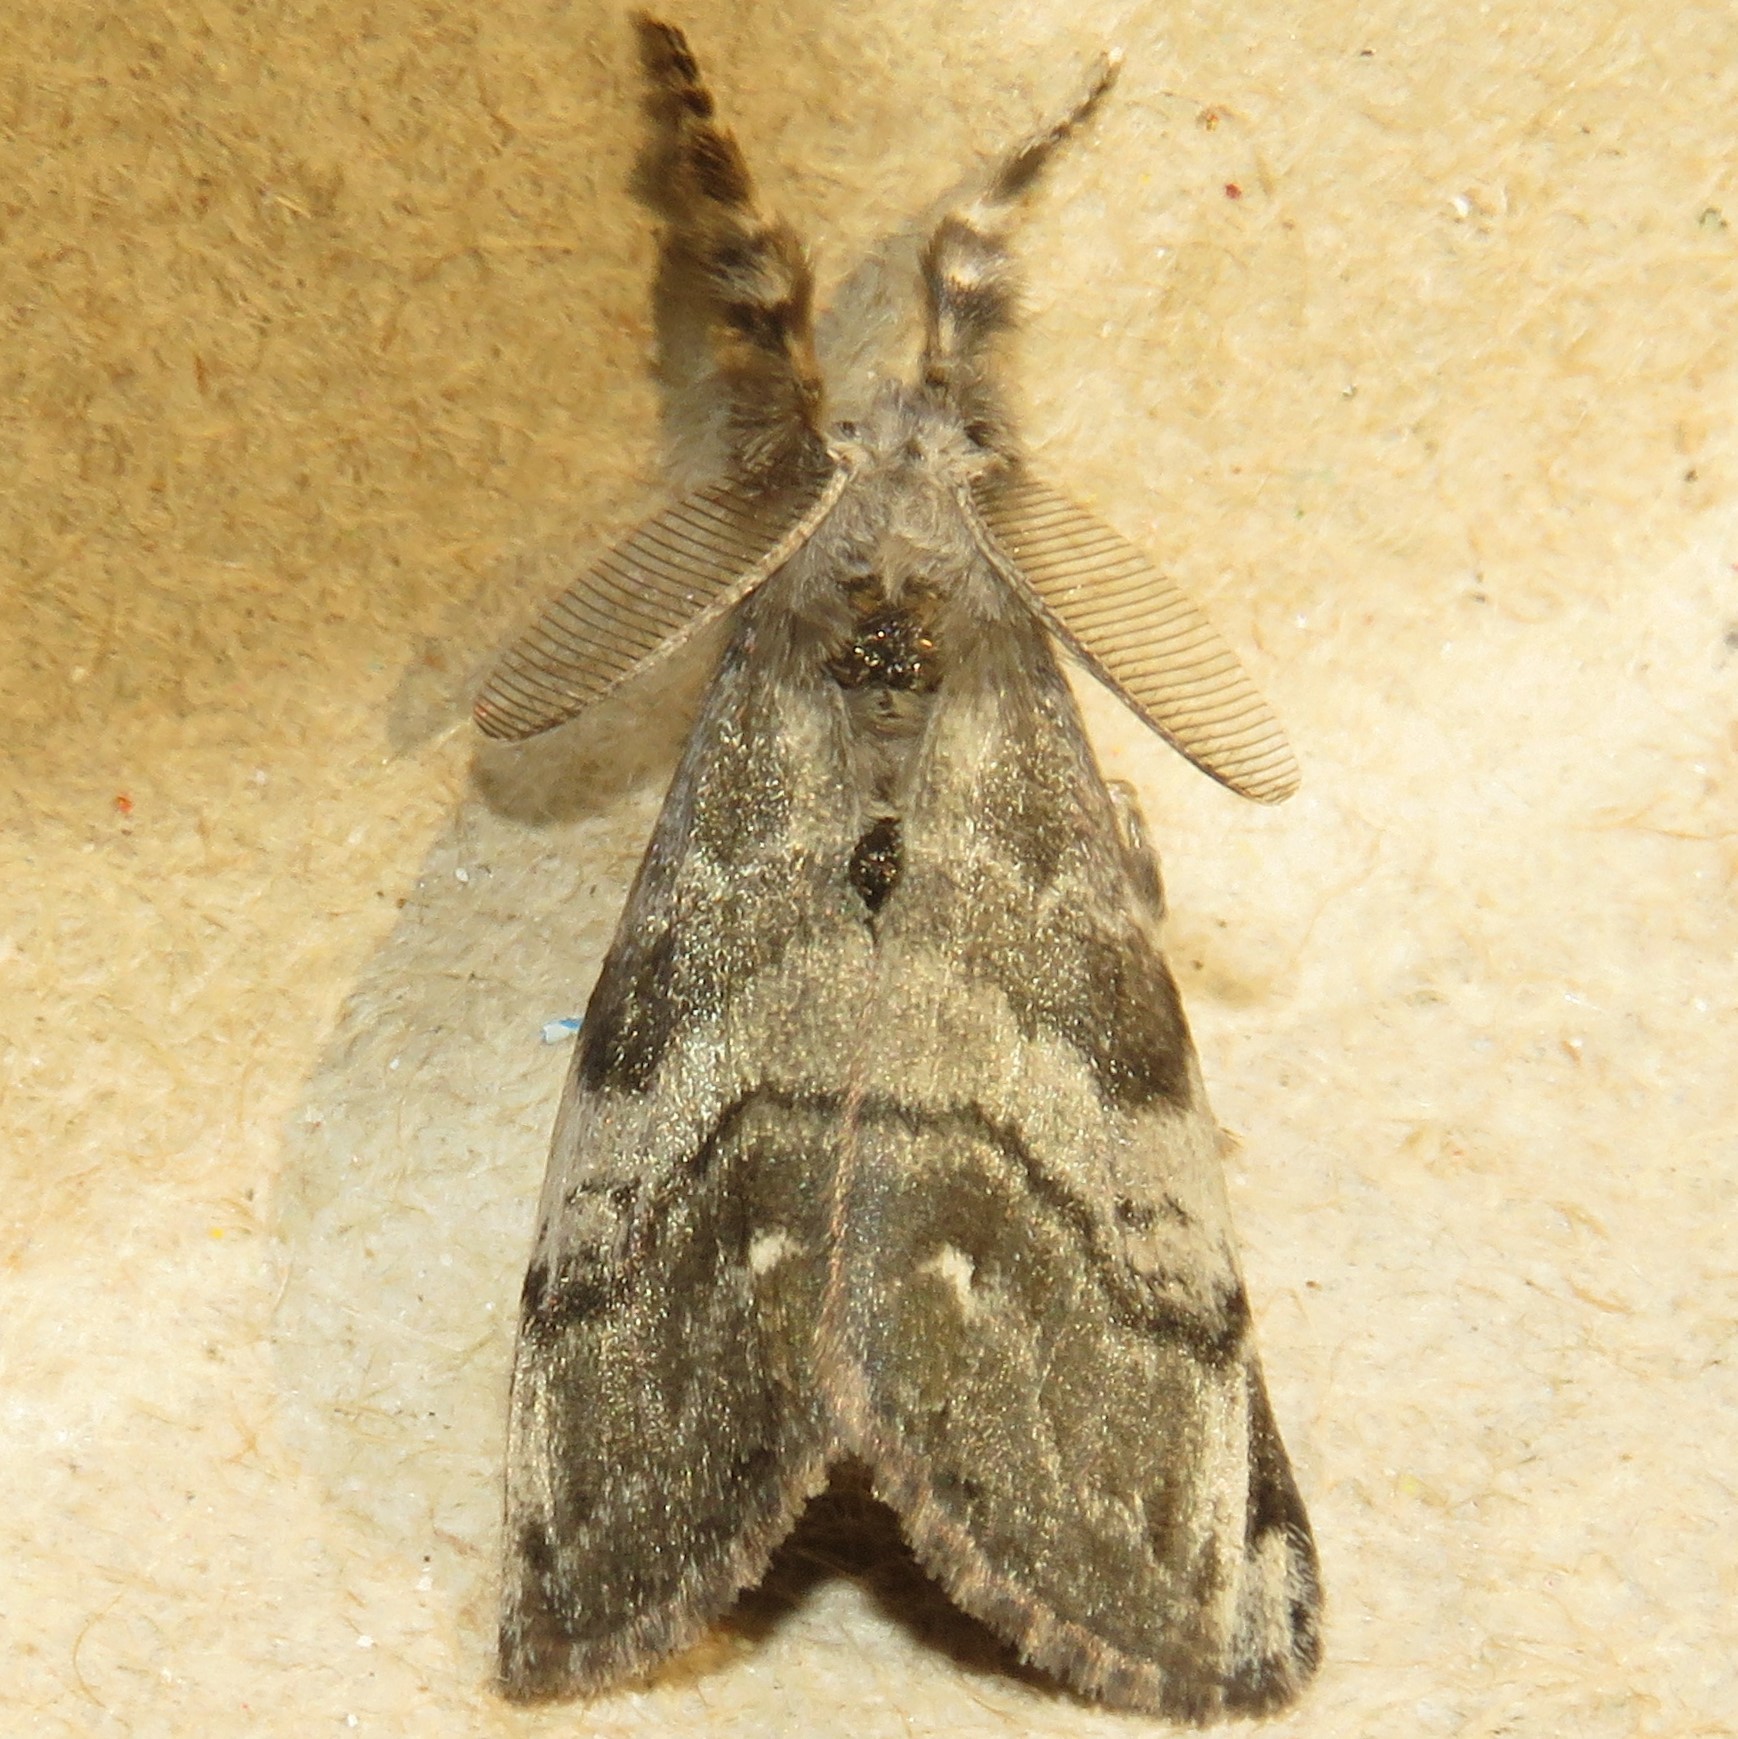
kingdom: Animalia
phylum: Arthropoda
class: Insecta
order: Lepidoptera
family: Erebidae
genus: Orgyia
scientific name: Orgyia leucostigma
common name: White-marked tussock moth
